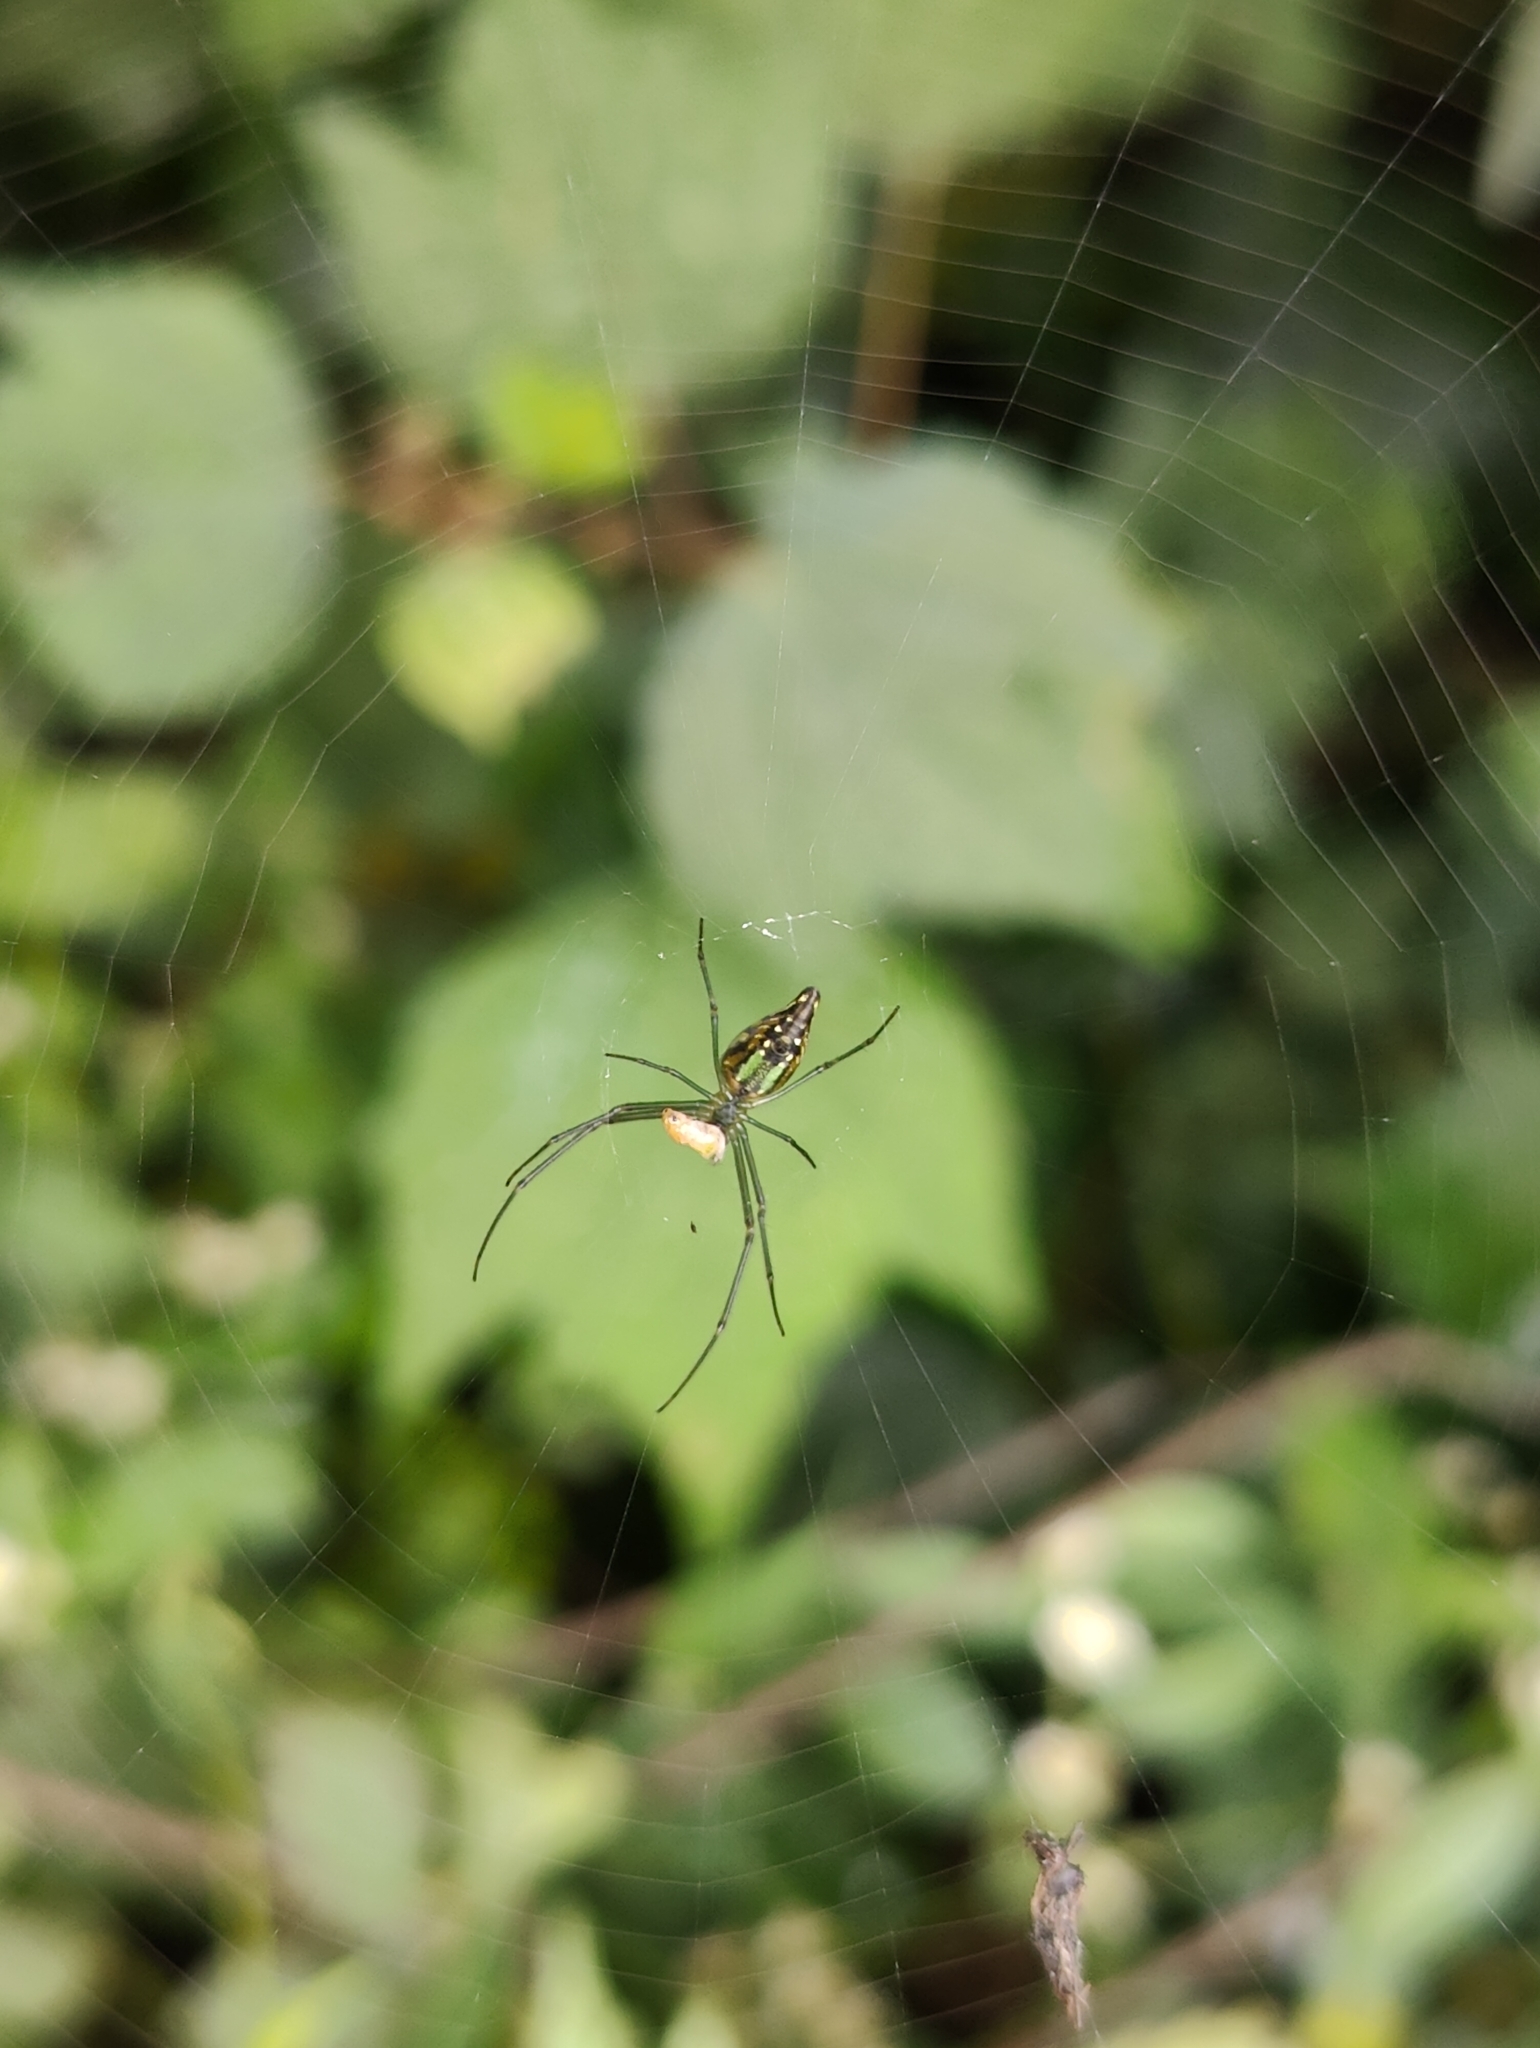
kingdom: Animalia
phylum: Arthropoda
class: Arachnida
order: Araneae
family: Tetragnathidae
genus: Leucauge
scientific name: Leucauge decorata
